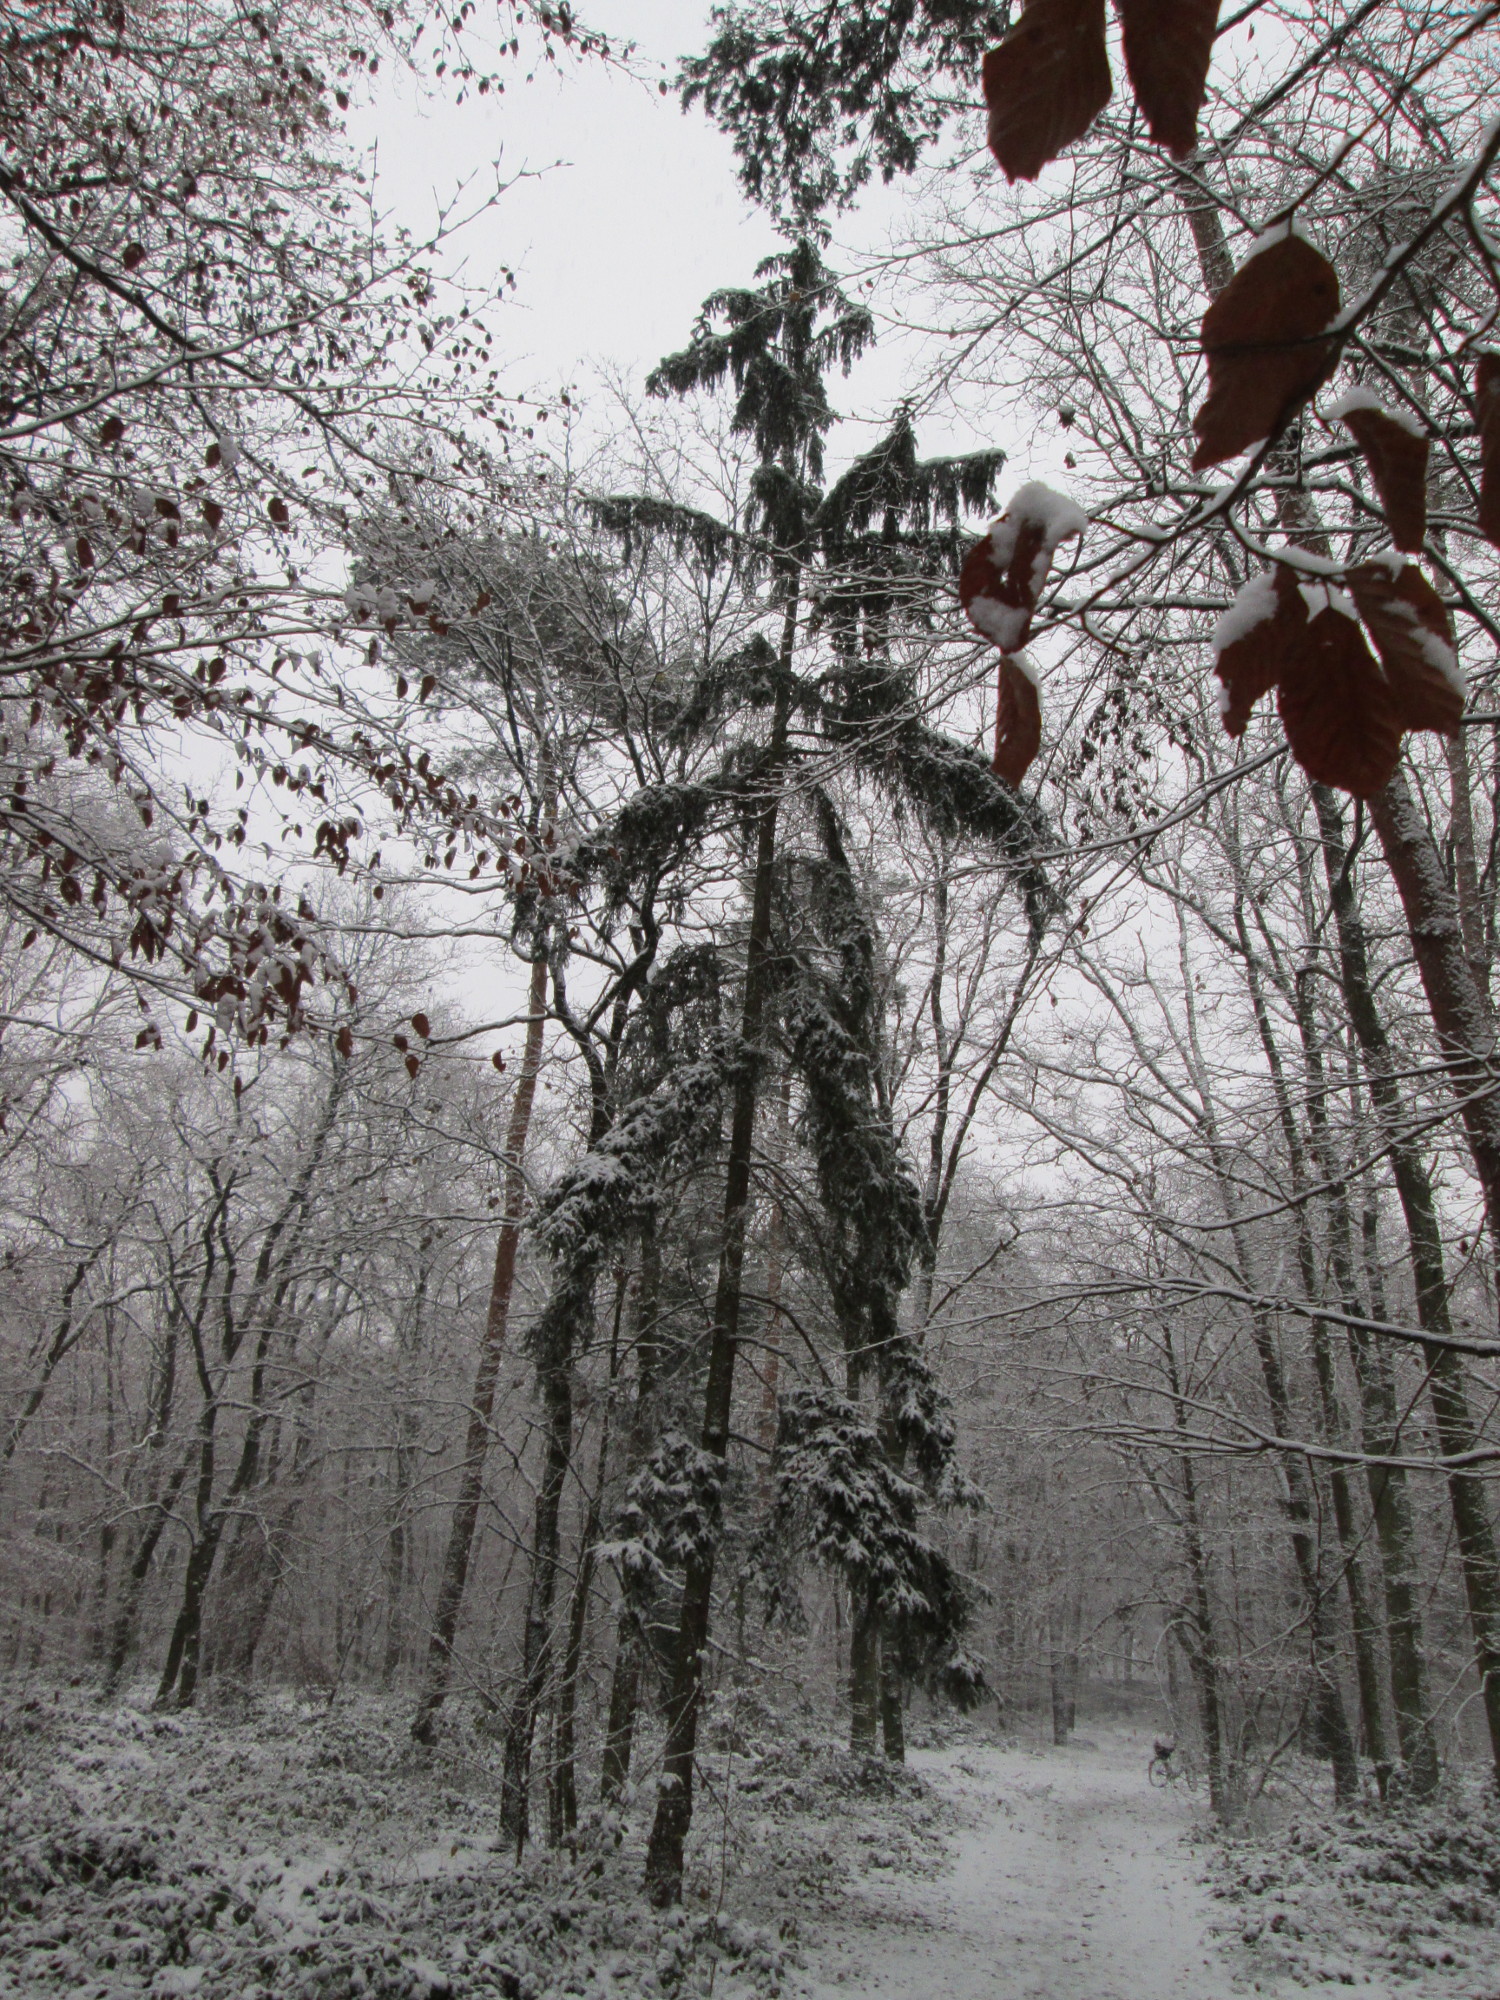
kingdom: Plantae
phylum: Tracheophyta
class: Pinopsida
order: Pinales
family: Pinaceae
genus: Picea
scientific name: Picea abies
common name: Norway spruce
